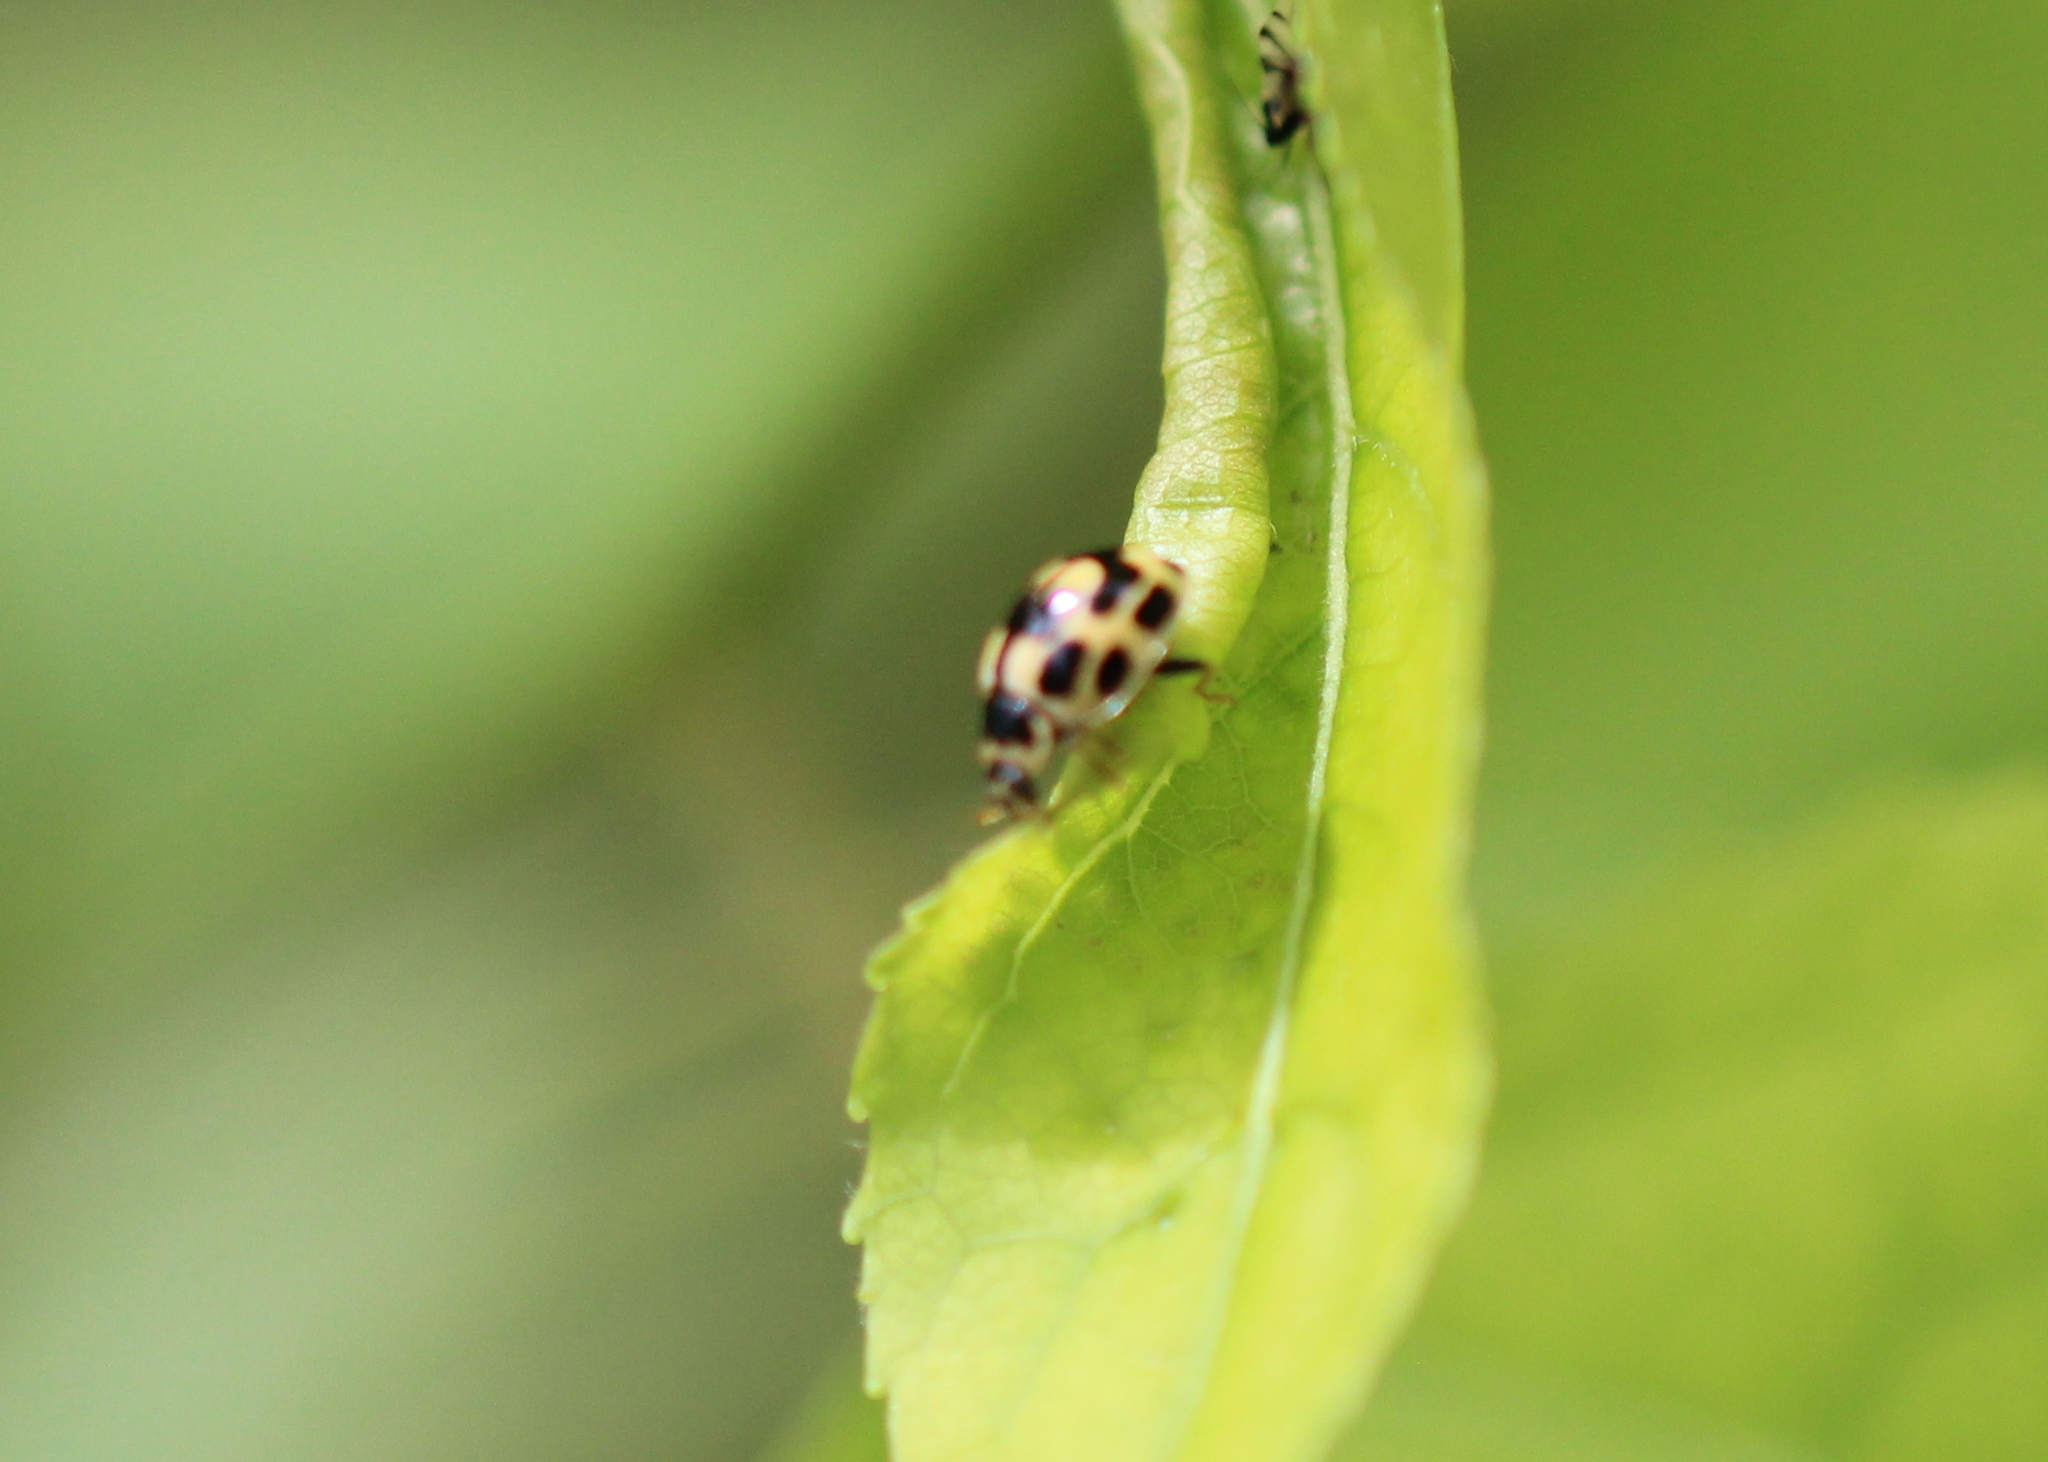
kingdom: Animalia
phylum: Arthropoda
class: Insecta
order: Coleoptera
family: Coccinellidae
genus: Propylaea
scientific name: Propylaea quatuordecimpunctata
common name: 14-spotted ladybird beetle
